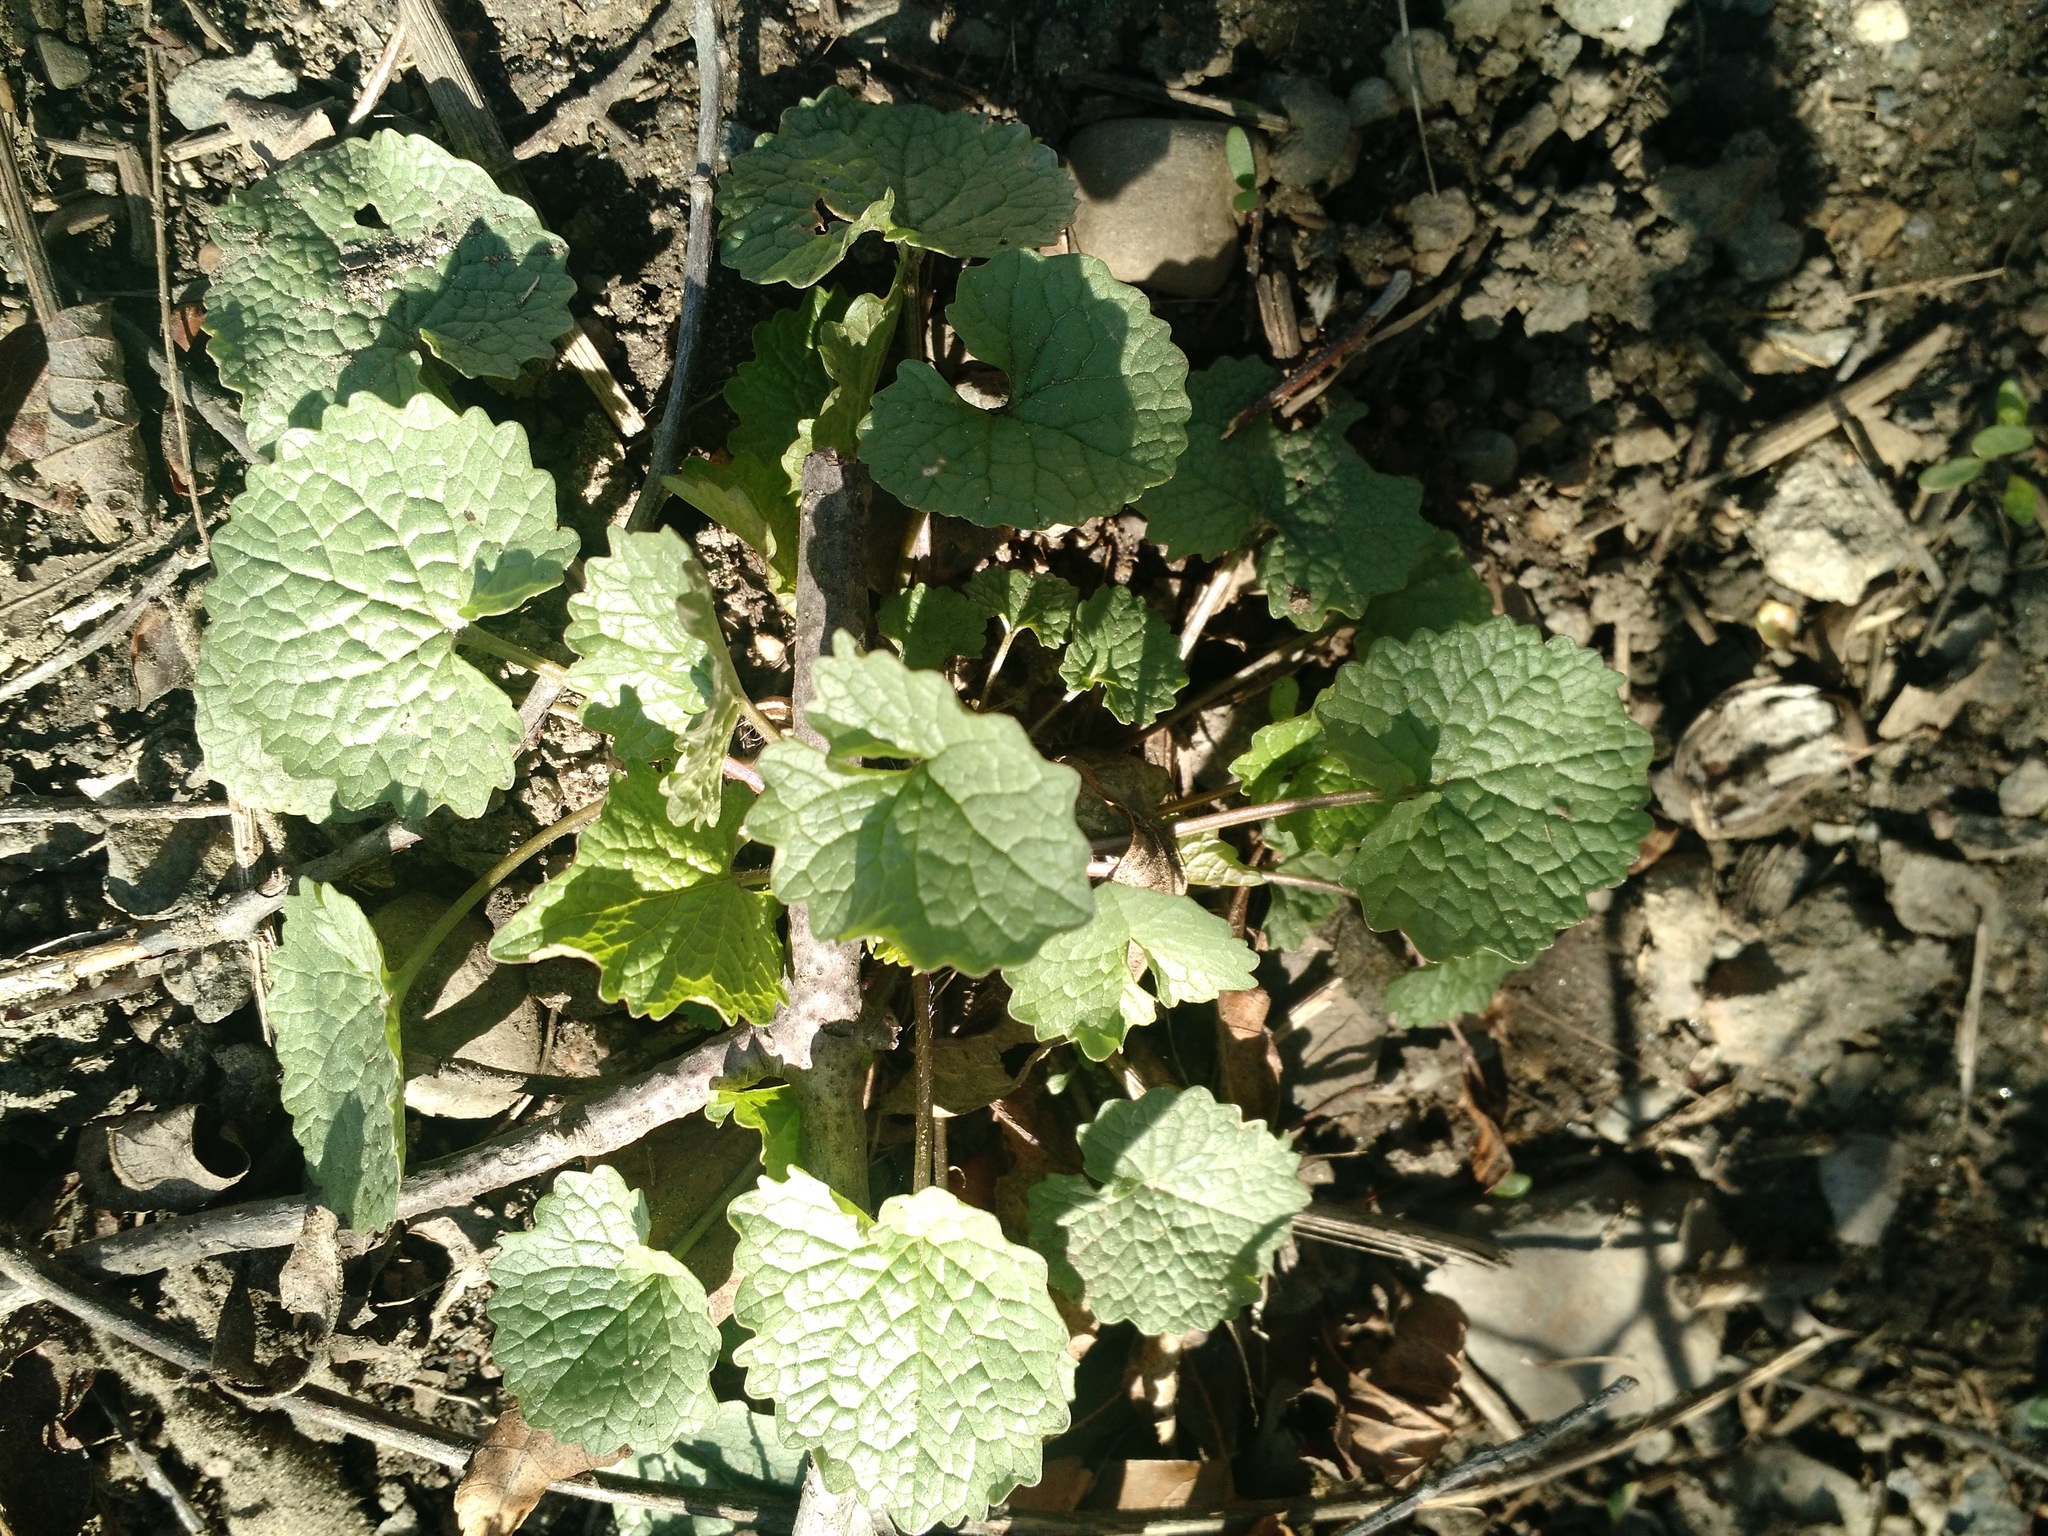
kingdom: Plantae
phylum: Tracheophyta
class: Magnoliopsida
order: Brassicales
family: Brassicaceae
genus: Alliaria
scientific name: Alliaria petiolata
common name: Garlic mustard
